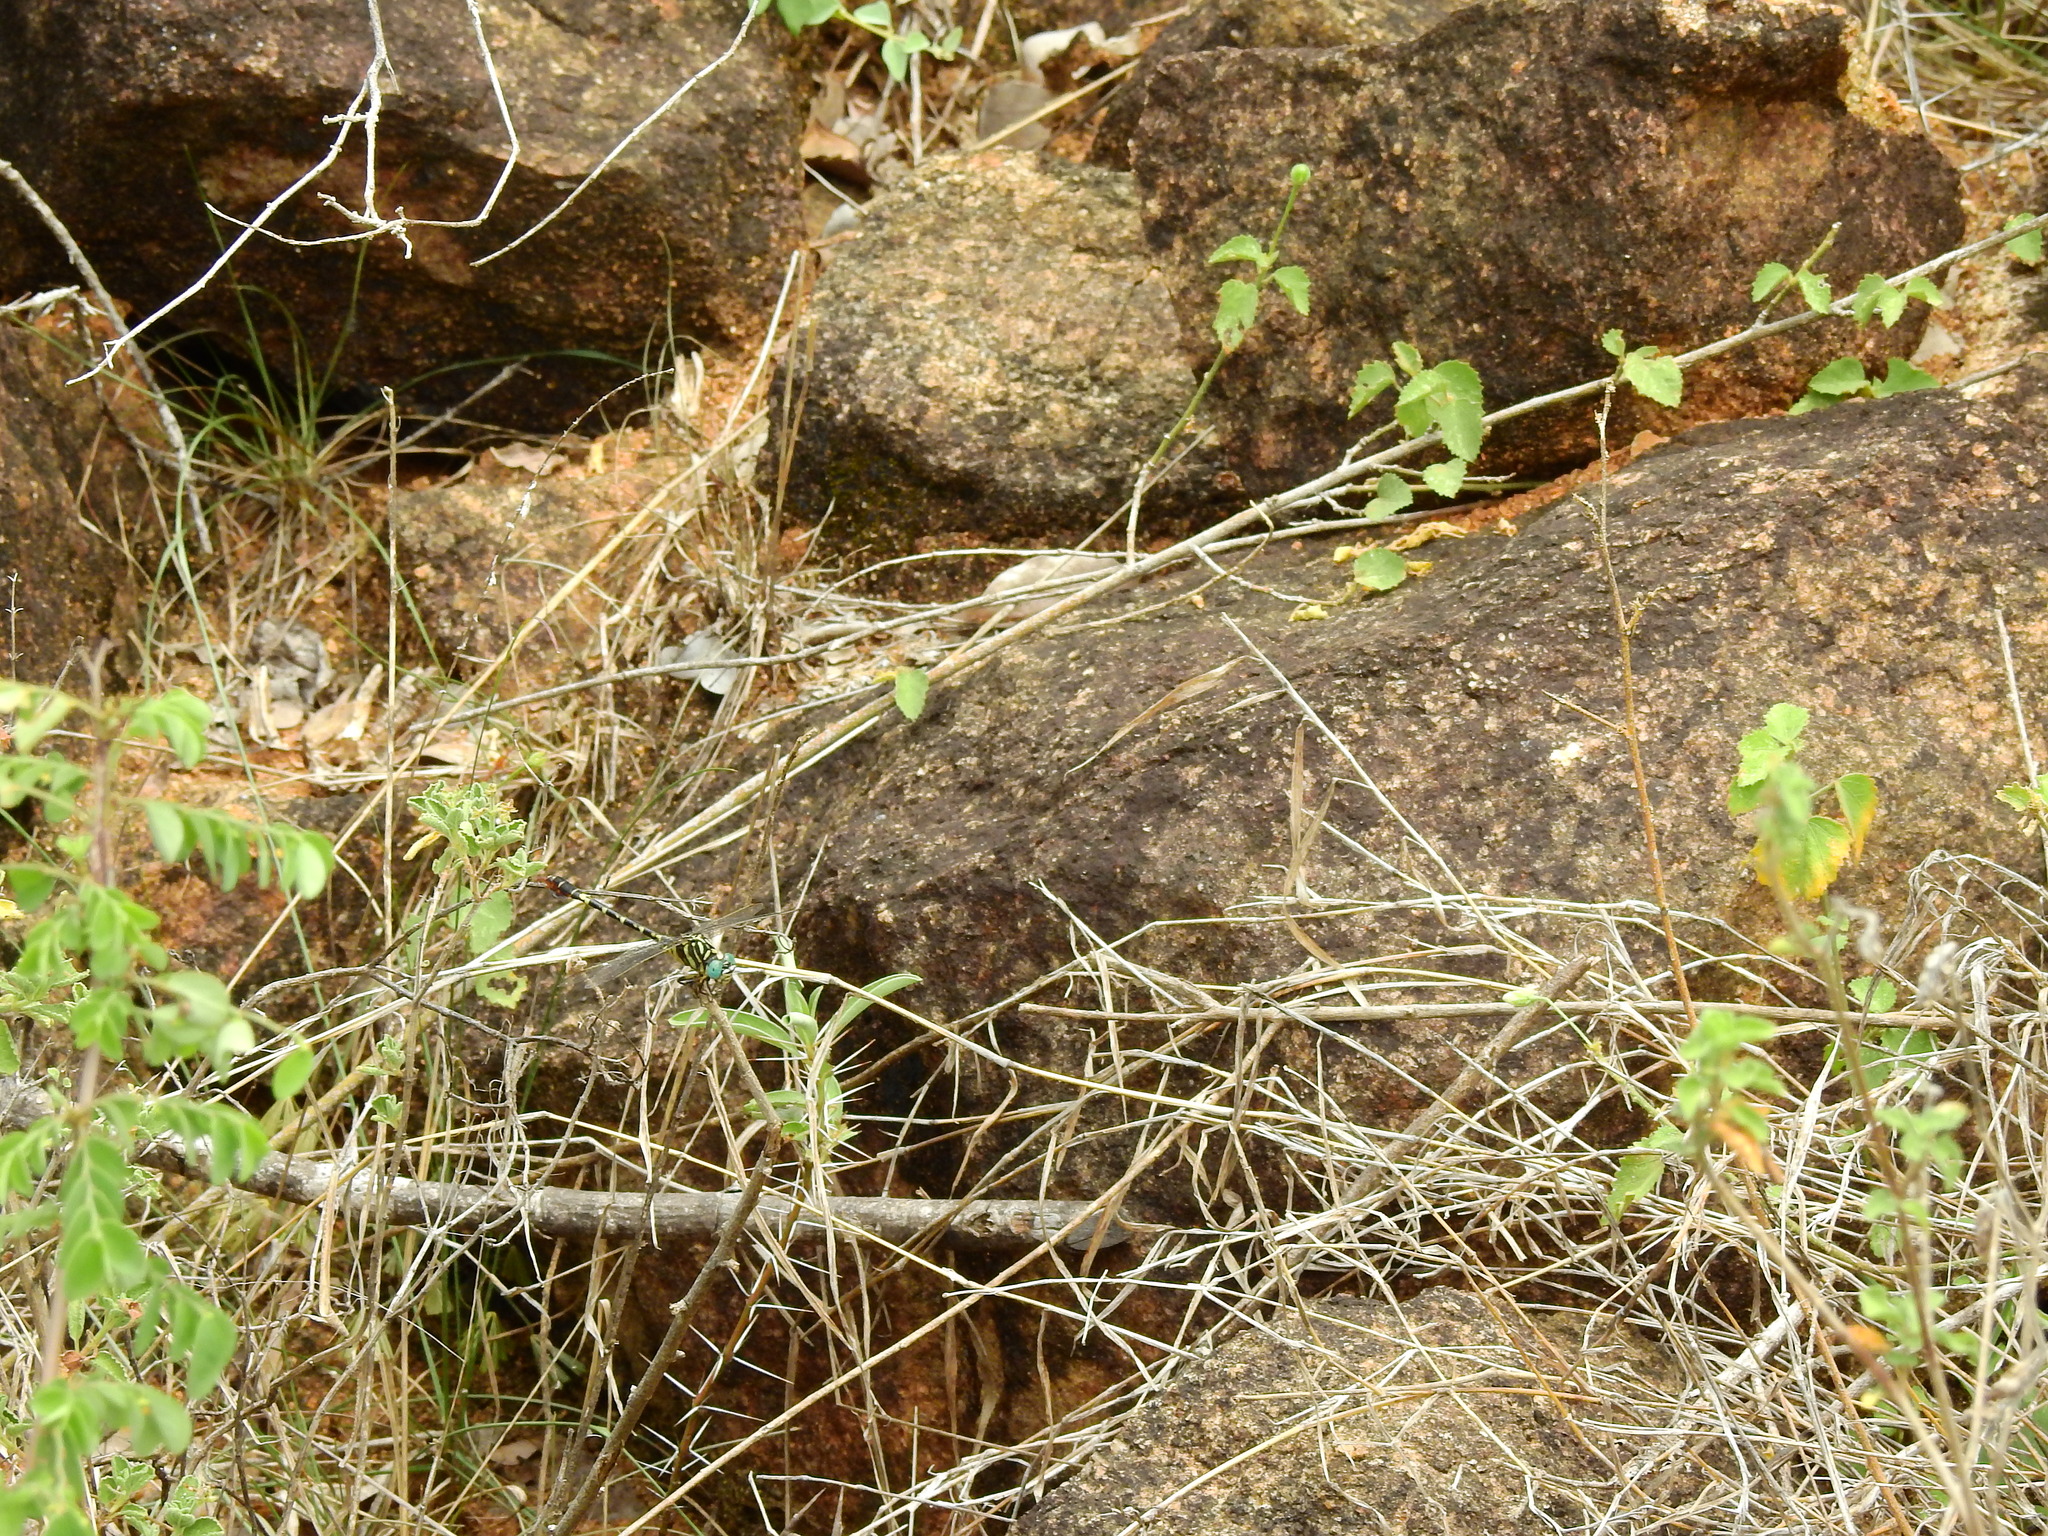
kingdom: Animalia
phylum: Arthropoda
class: Insecta
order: Odonata
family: Gomphidae
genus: Paragomphus
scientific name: Paragomphus lineatus
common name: Lined hooktail
